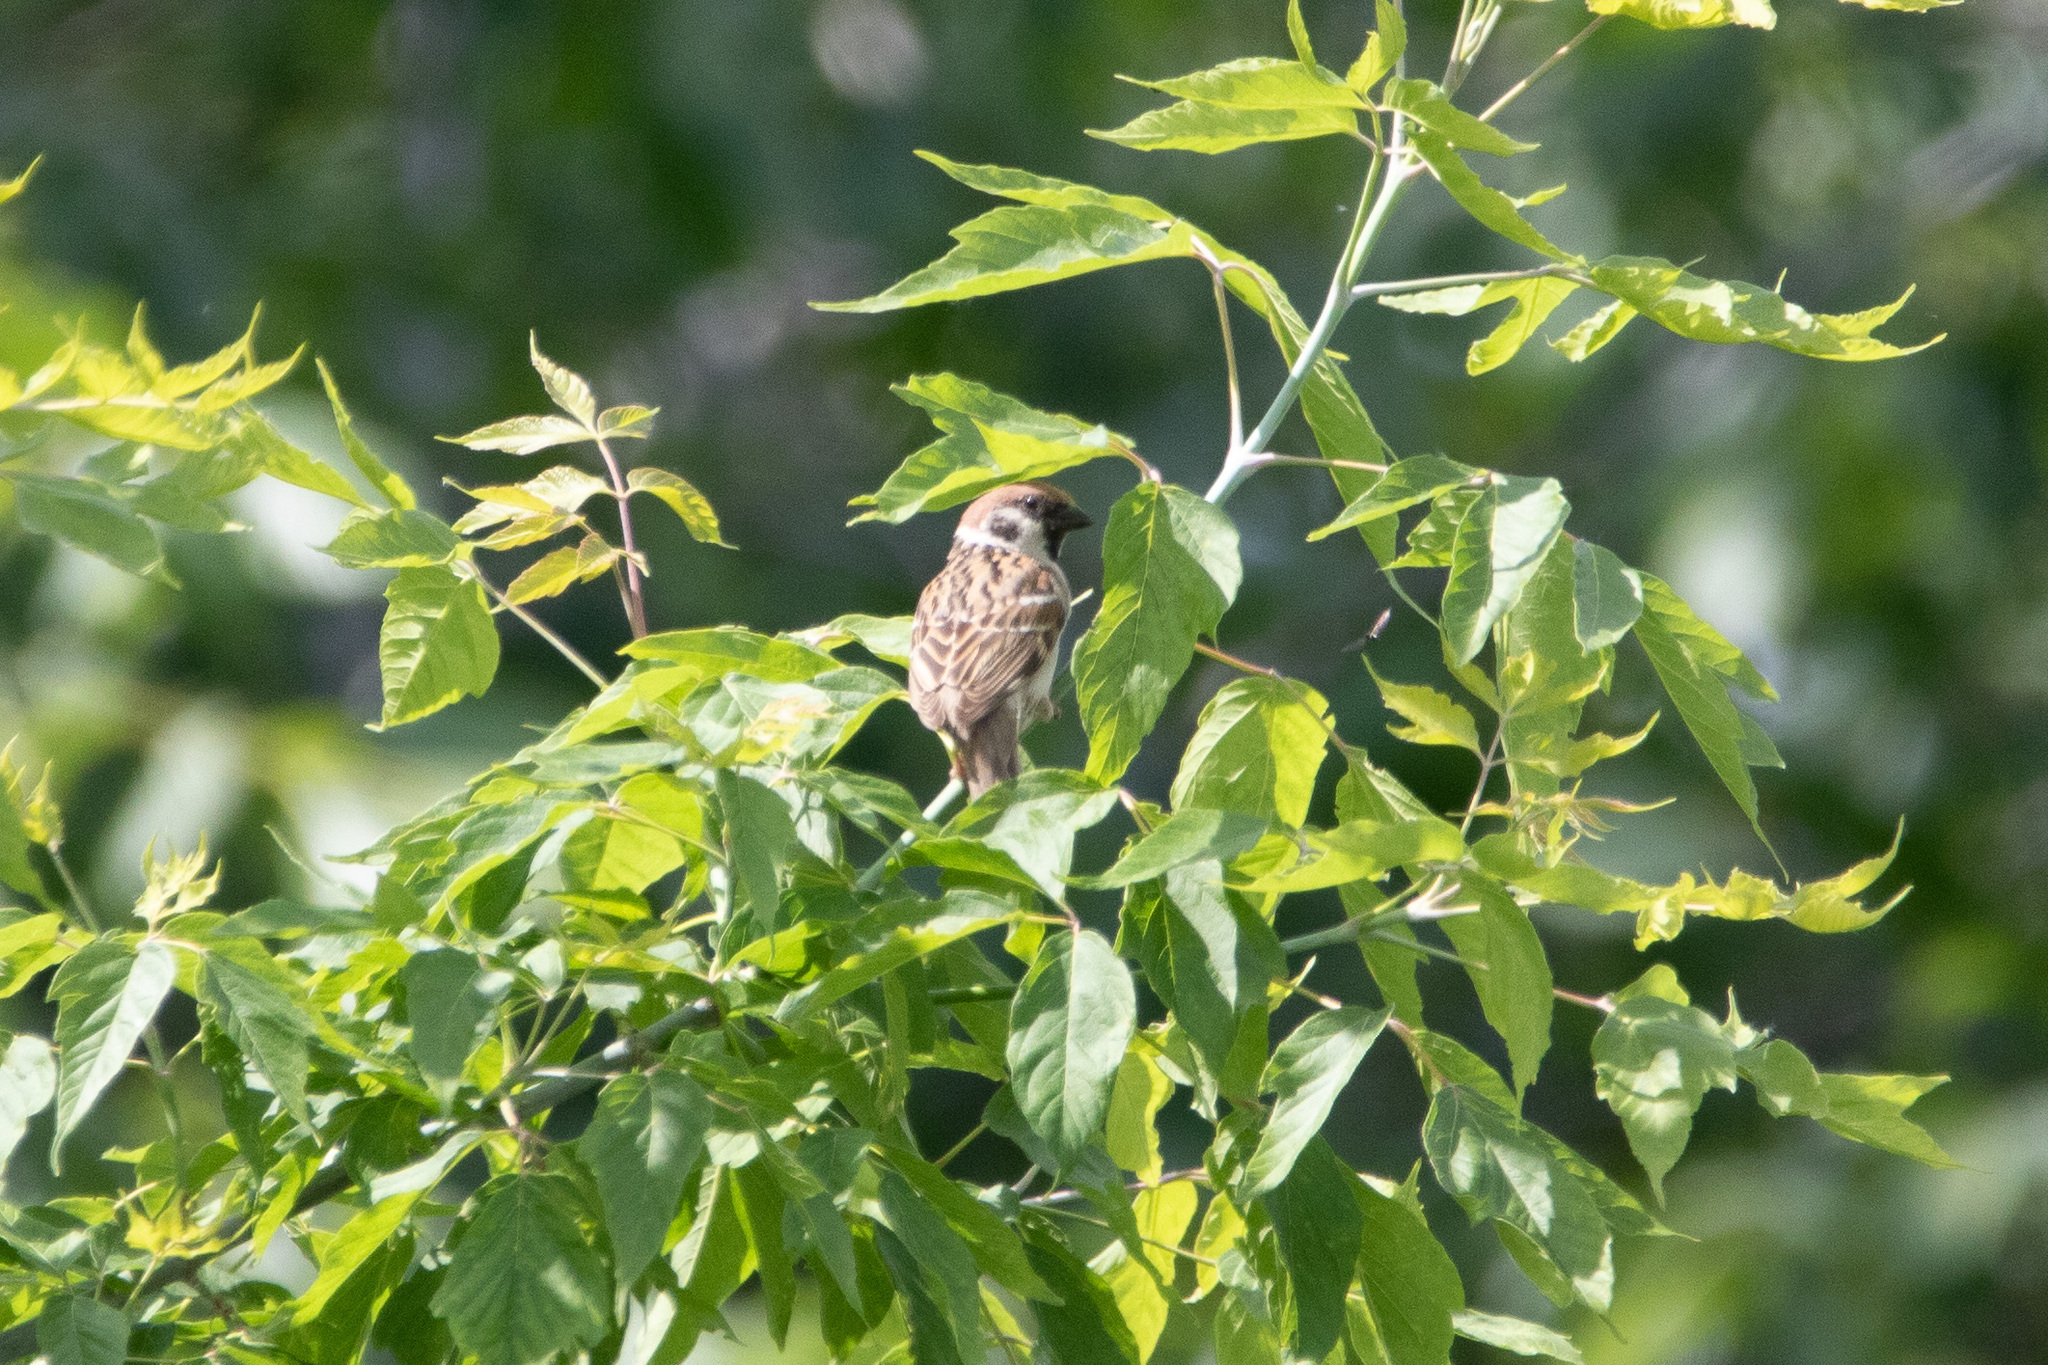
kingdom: Animalia
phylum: Chordata
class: Aves
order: Passeriformes
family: Passeridae
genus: Passer
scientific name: Passer montanus
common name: Eurasian tree sparrow
